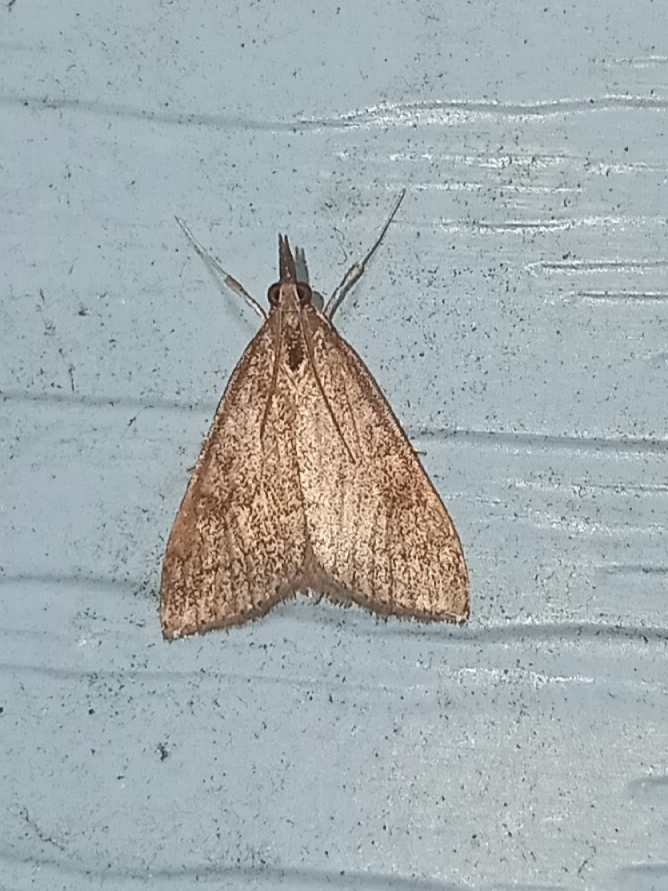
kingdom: Animalia
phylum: Arthropoda
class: Insecta
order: Lepidoptera
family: Crambidae
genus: Udea
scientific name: Udea rubigalis
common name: Celery leaftier moth
